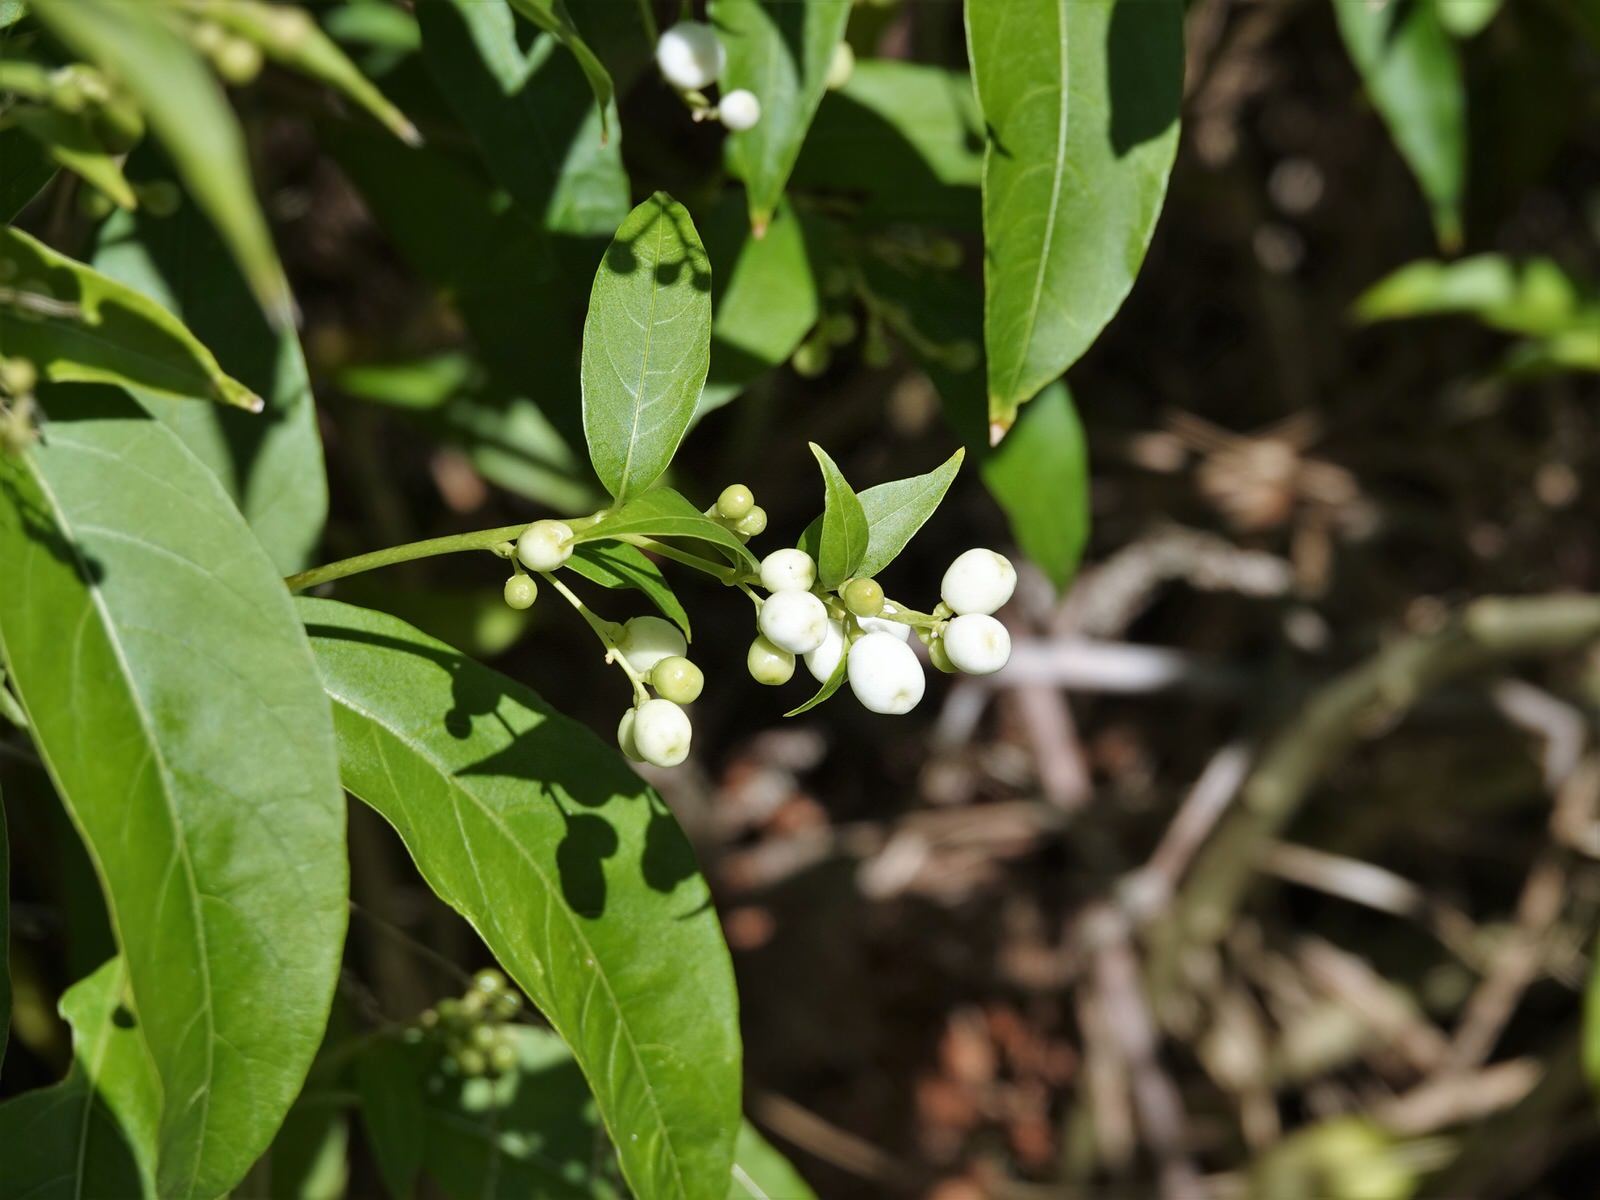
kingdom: Plantae
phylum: Tracheophyta
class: Magnoliopsida
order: Solanales
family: Solanaceae
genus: Cestrum
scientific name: Cestrum nocturnum
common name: Night jessamine
